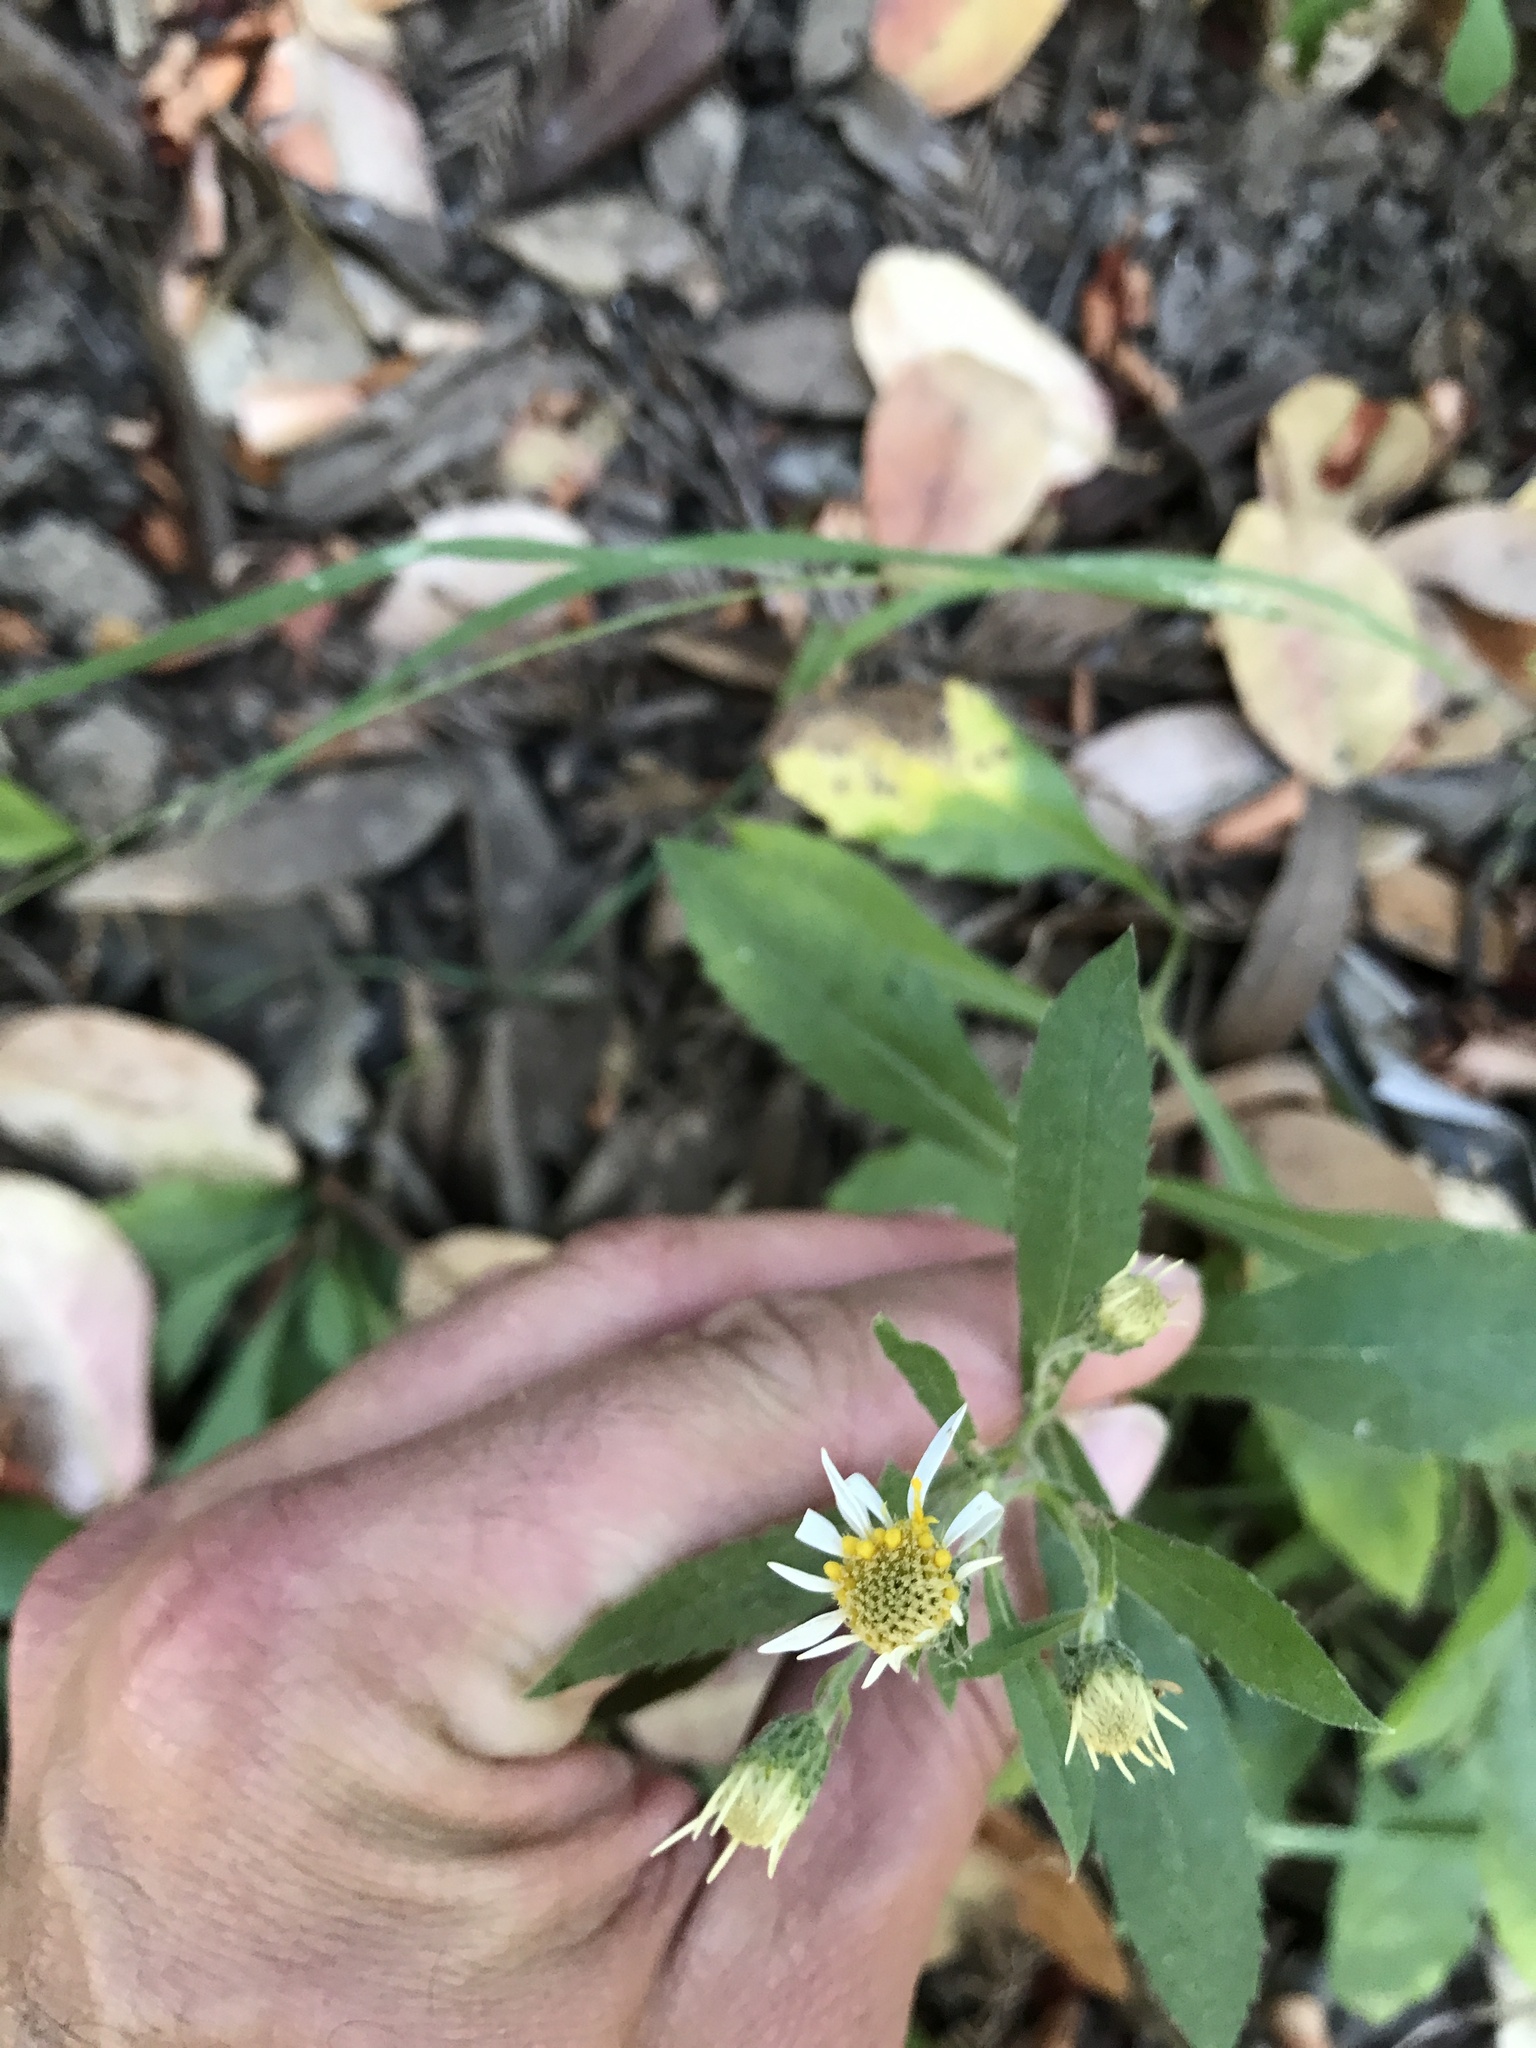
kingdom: Plantae
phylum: Tracheophyta
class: Magnoliopsida
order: Asterales
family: Asteraceae
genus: Eurybia
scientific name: Eurybia radulina
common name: Rough-leaved aster
